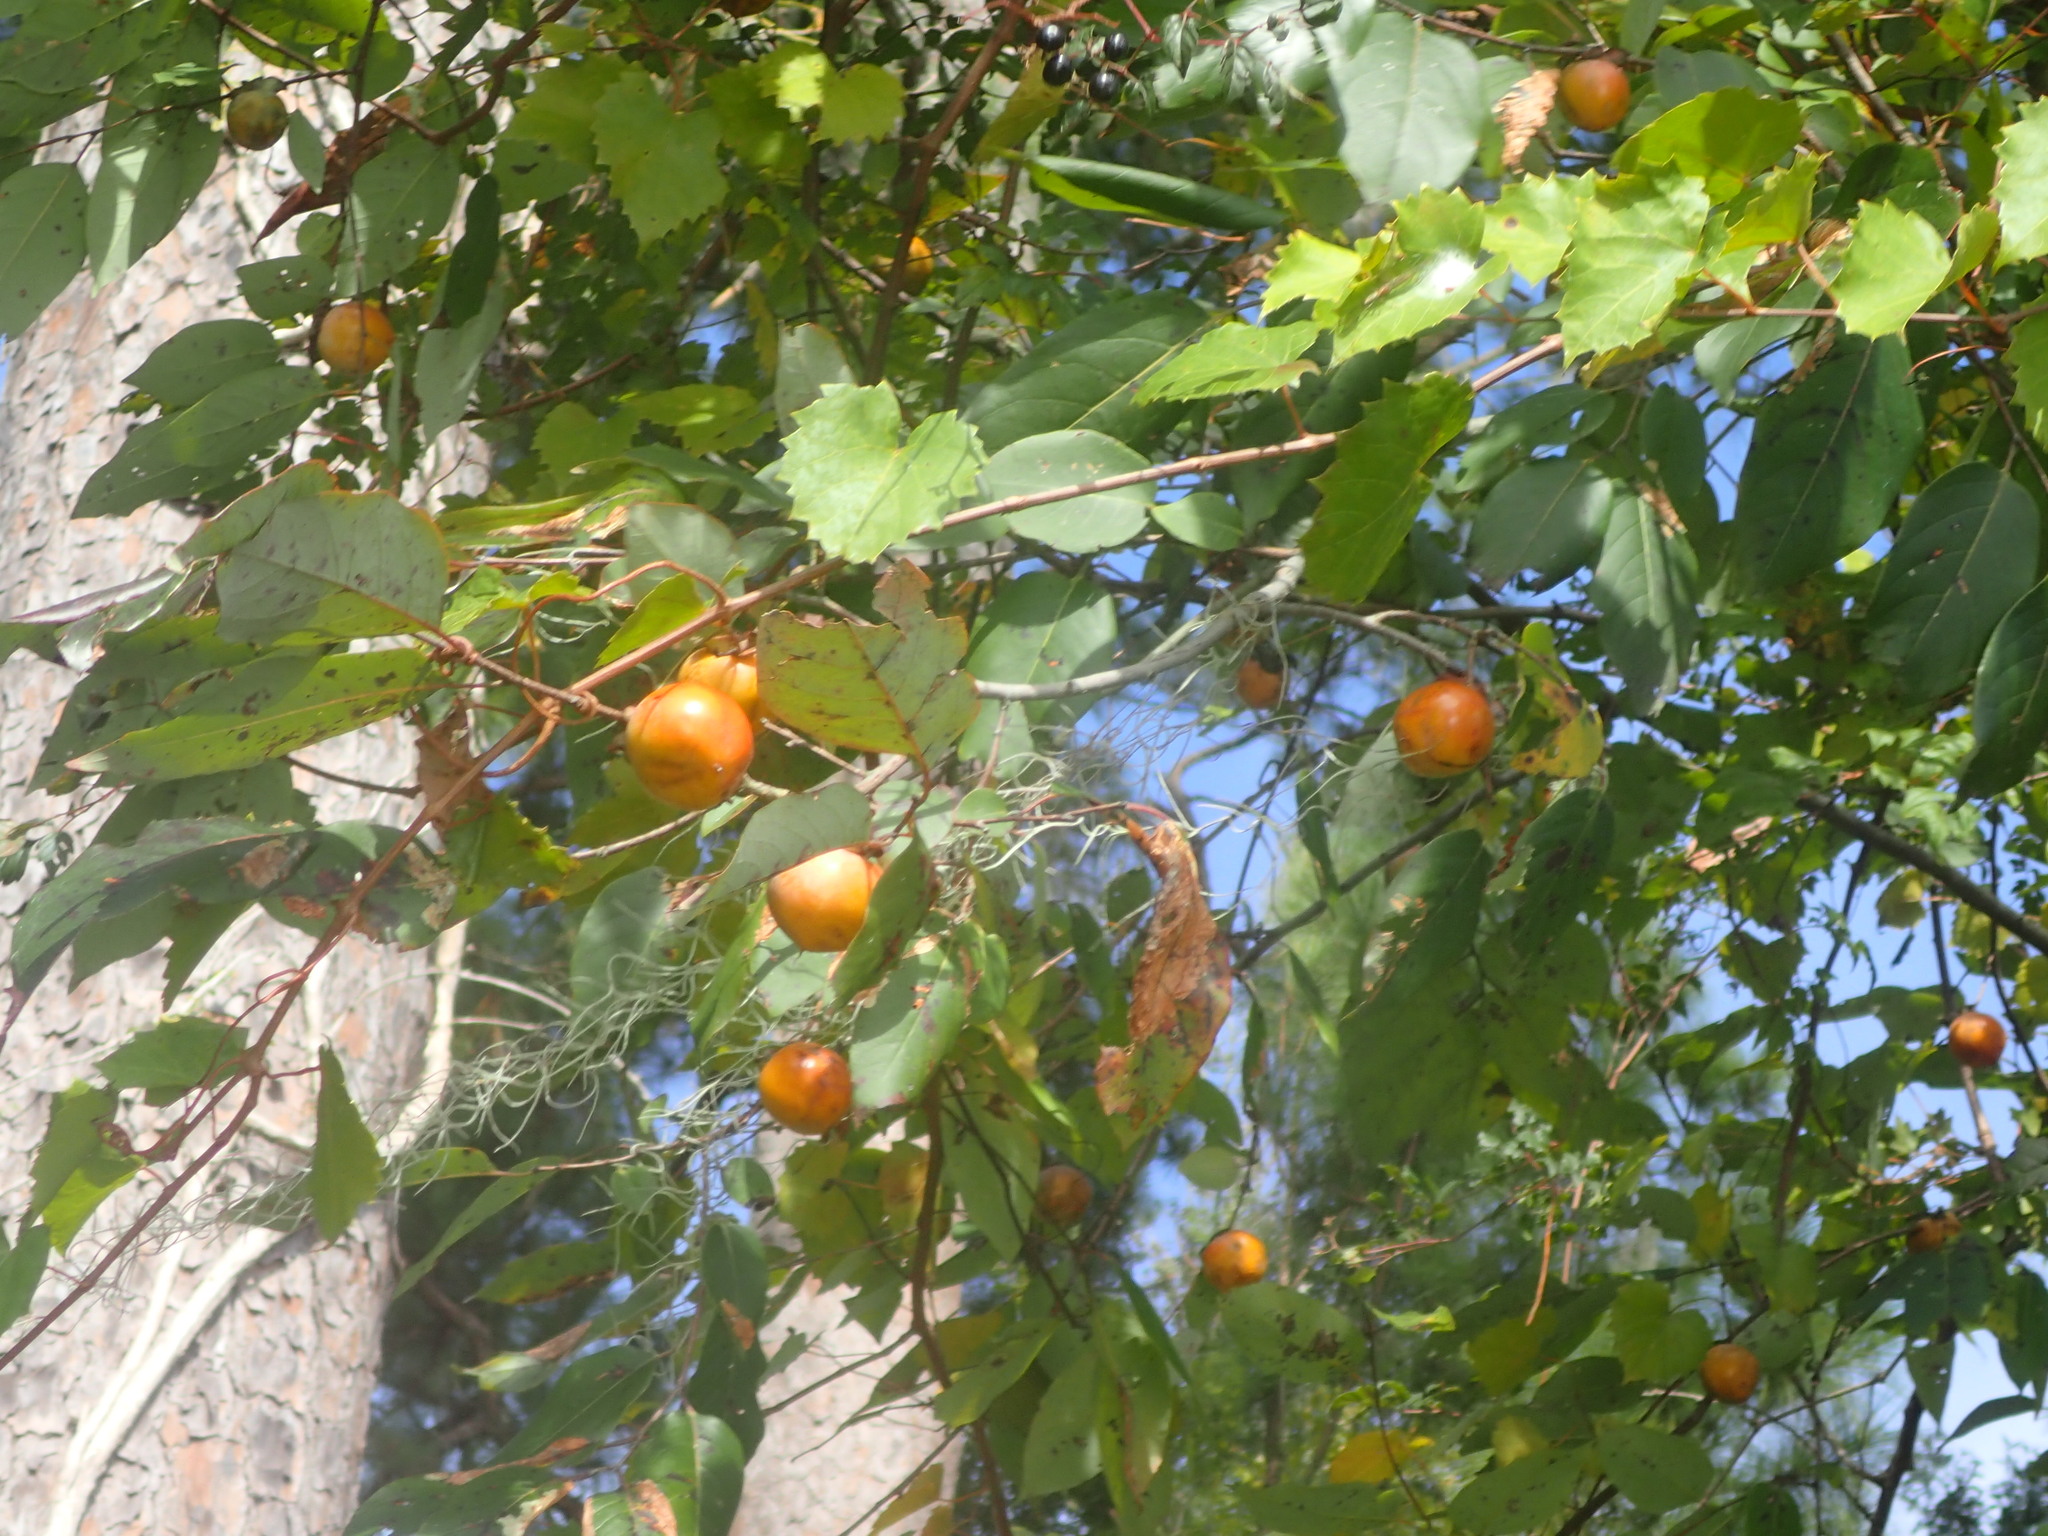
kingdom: Plantae
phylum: Tracheophyta
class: Magnoliopsida
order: Ericales
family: Ebenaceae
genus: Diospyros
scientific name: Diospyros virginiana
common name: Persimmon
